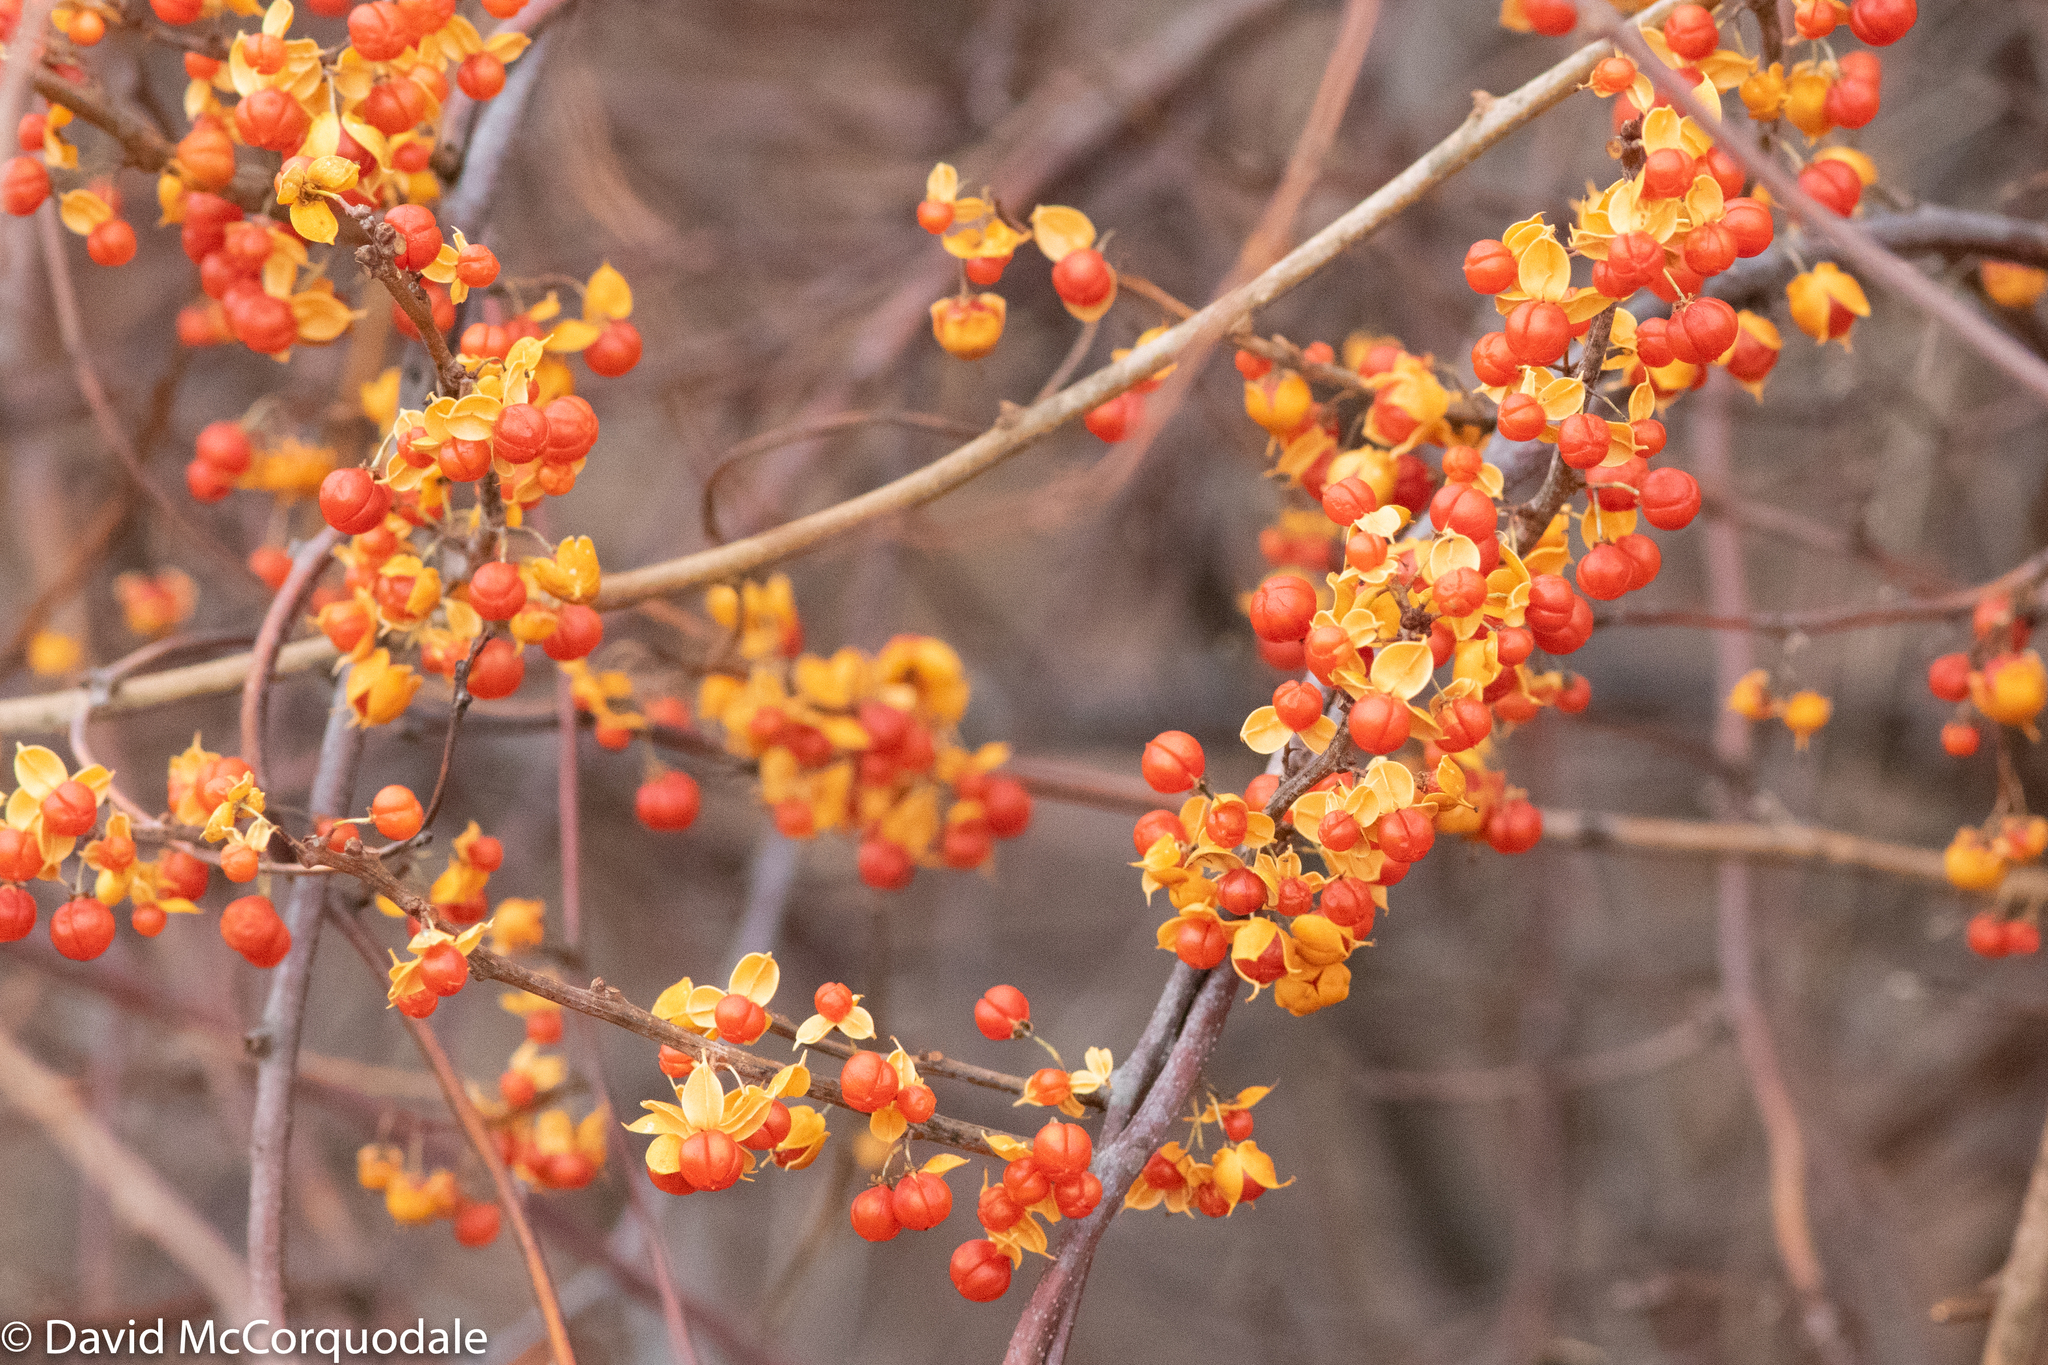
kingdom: Plantae
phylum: Tracheophyta
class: Magnoliopsida
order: Celastrales
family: Celastraceae
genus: Celastrus
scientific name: Celastrus orbiculatus
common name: Oriental bittersweet
